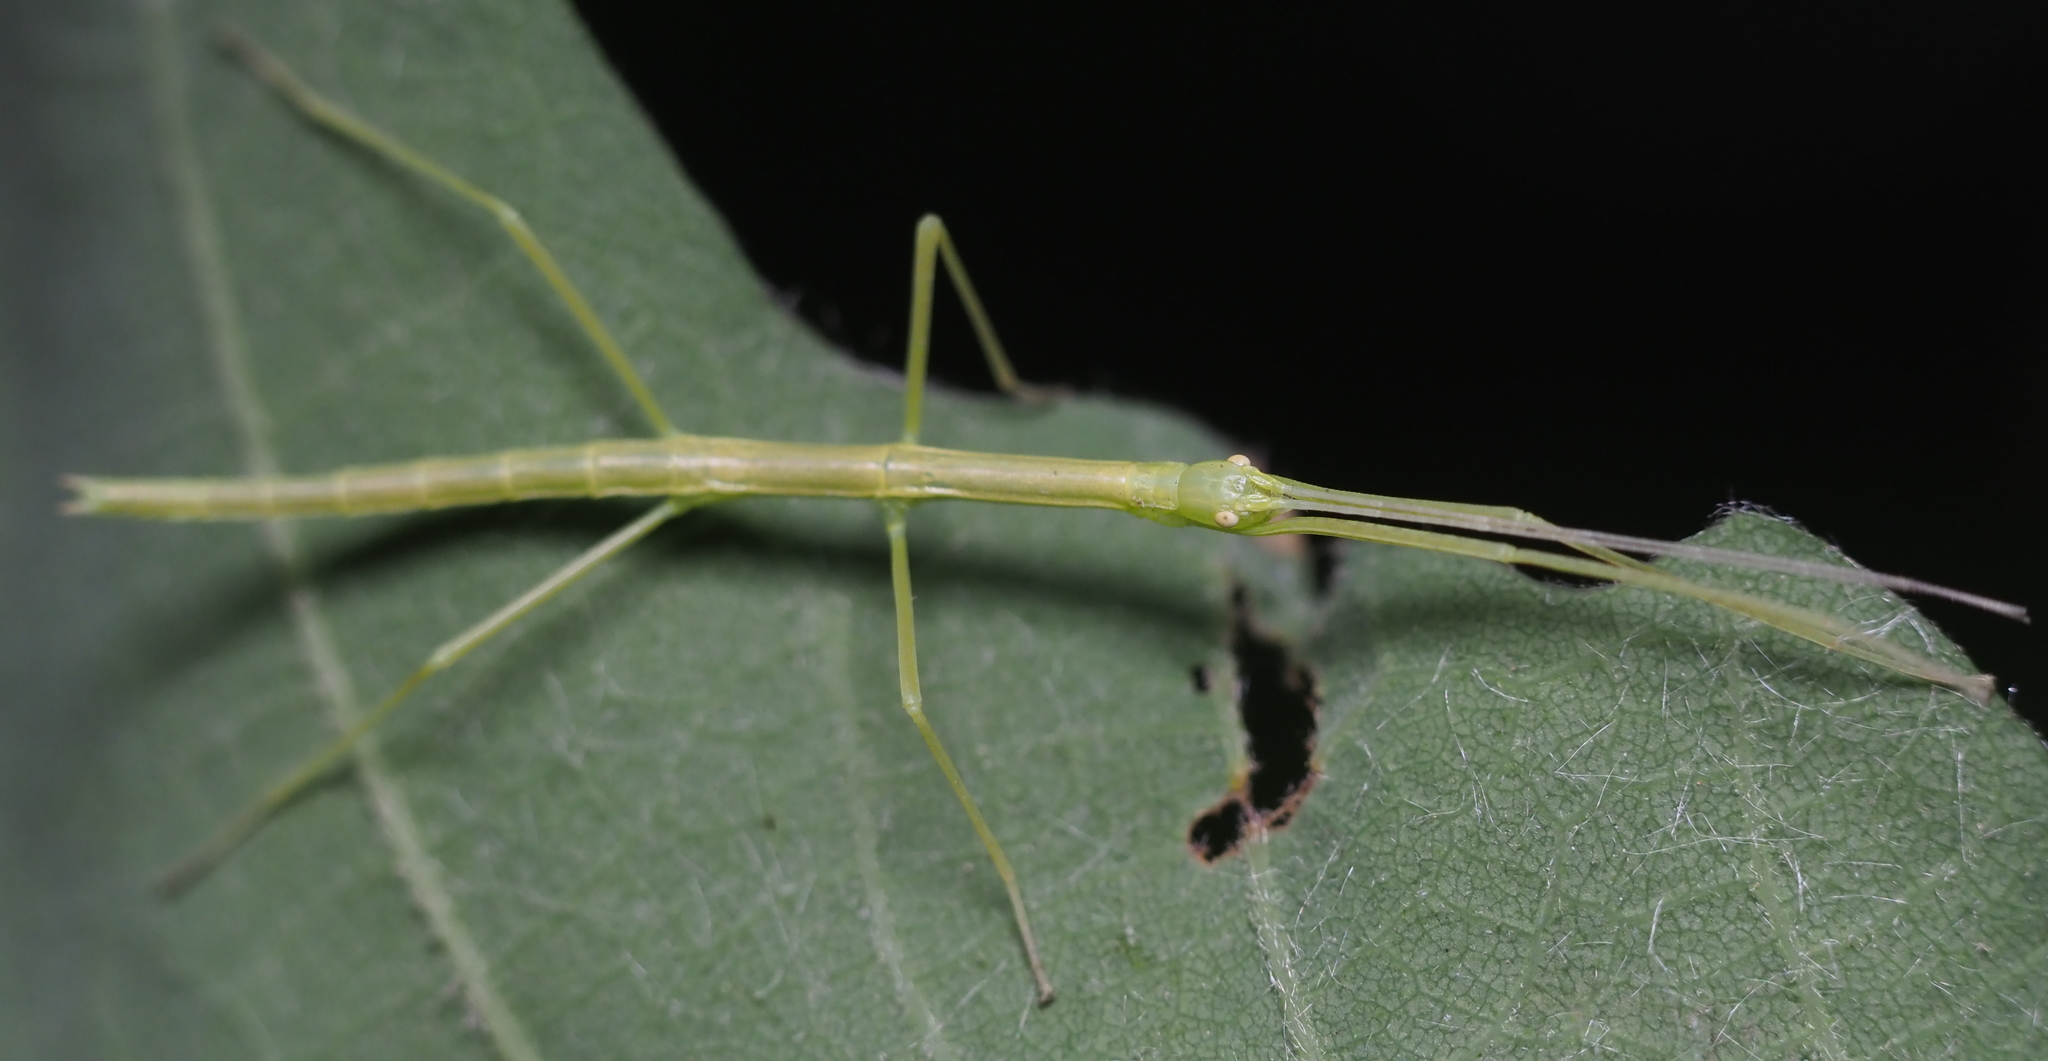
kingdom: Animalia
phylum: Arthropoda
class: Insecta
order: Phasmida
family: Diapheromeridae
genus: Diapheromera
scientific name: Diapheromera femorata
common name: Common american walkingstick
